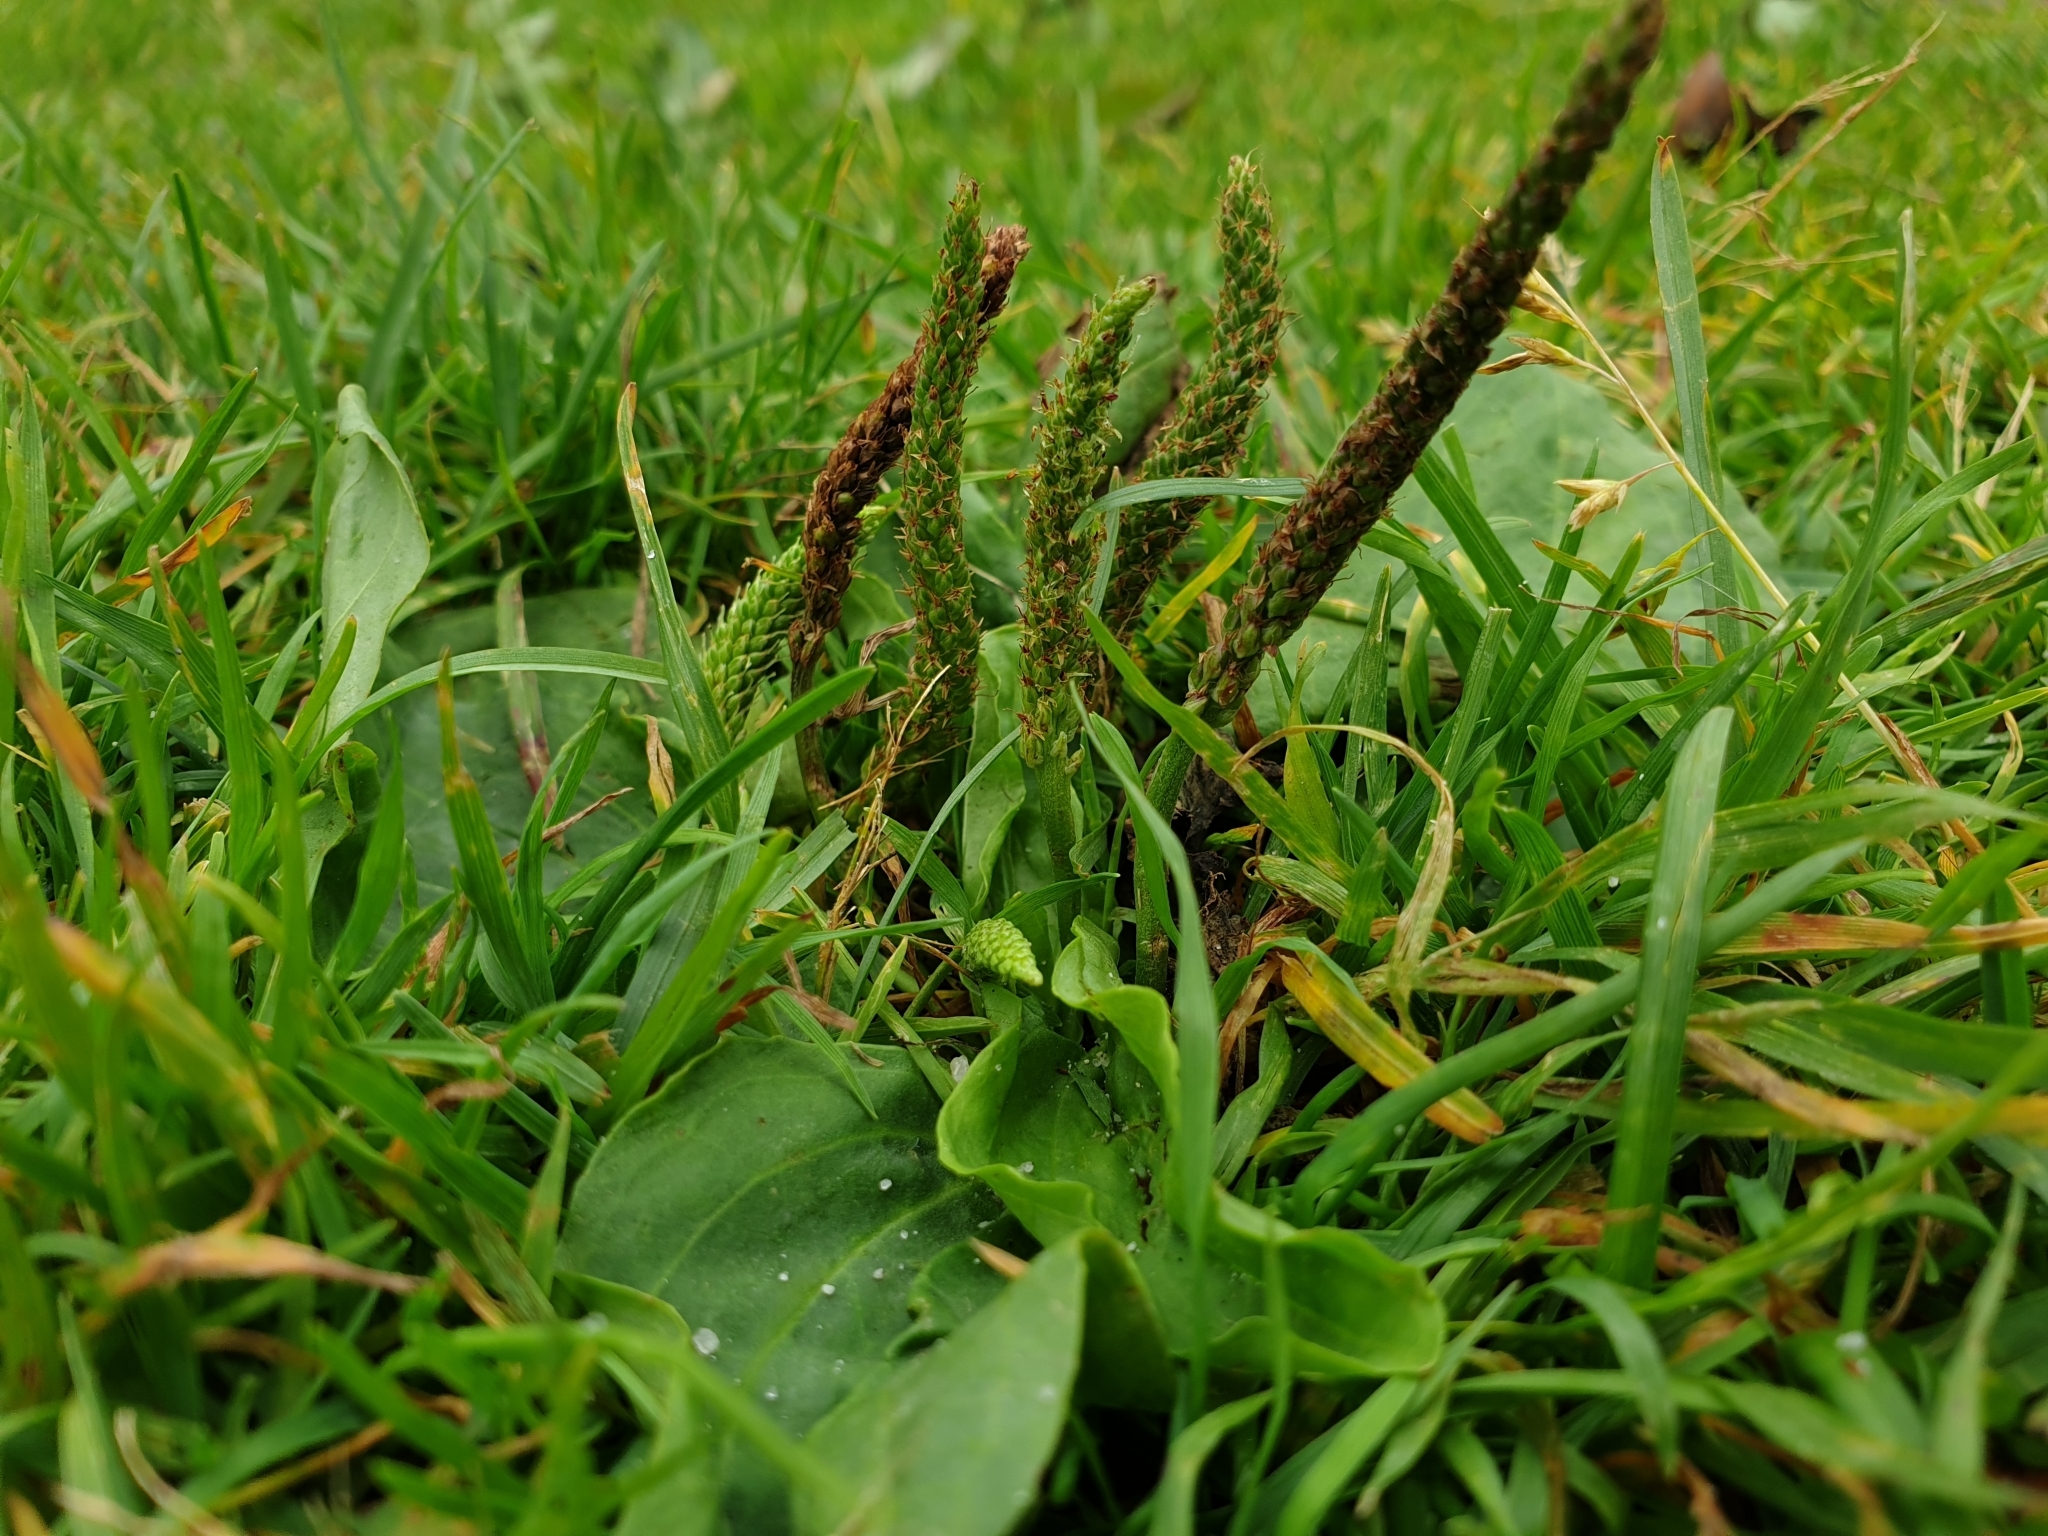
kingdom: Plantae
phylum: Tracheophyta
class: Magnoliopsida
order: Lamiales
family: Plantaginaceae
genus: Plantago
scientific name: Plantago major
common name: Common plantain
